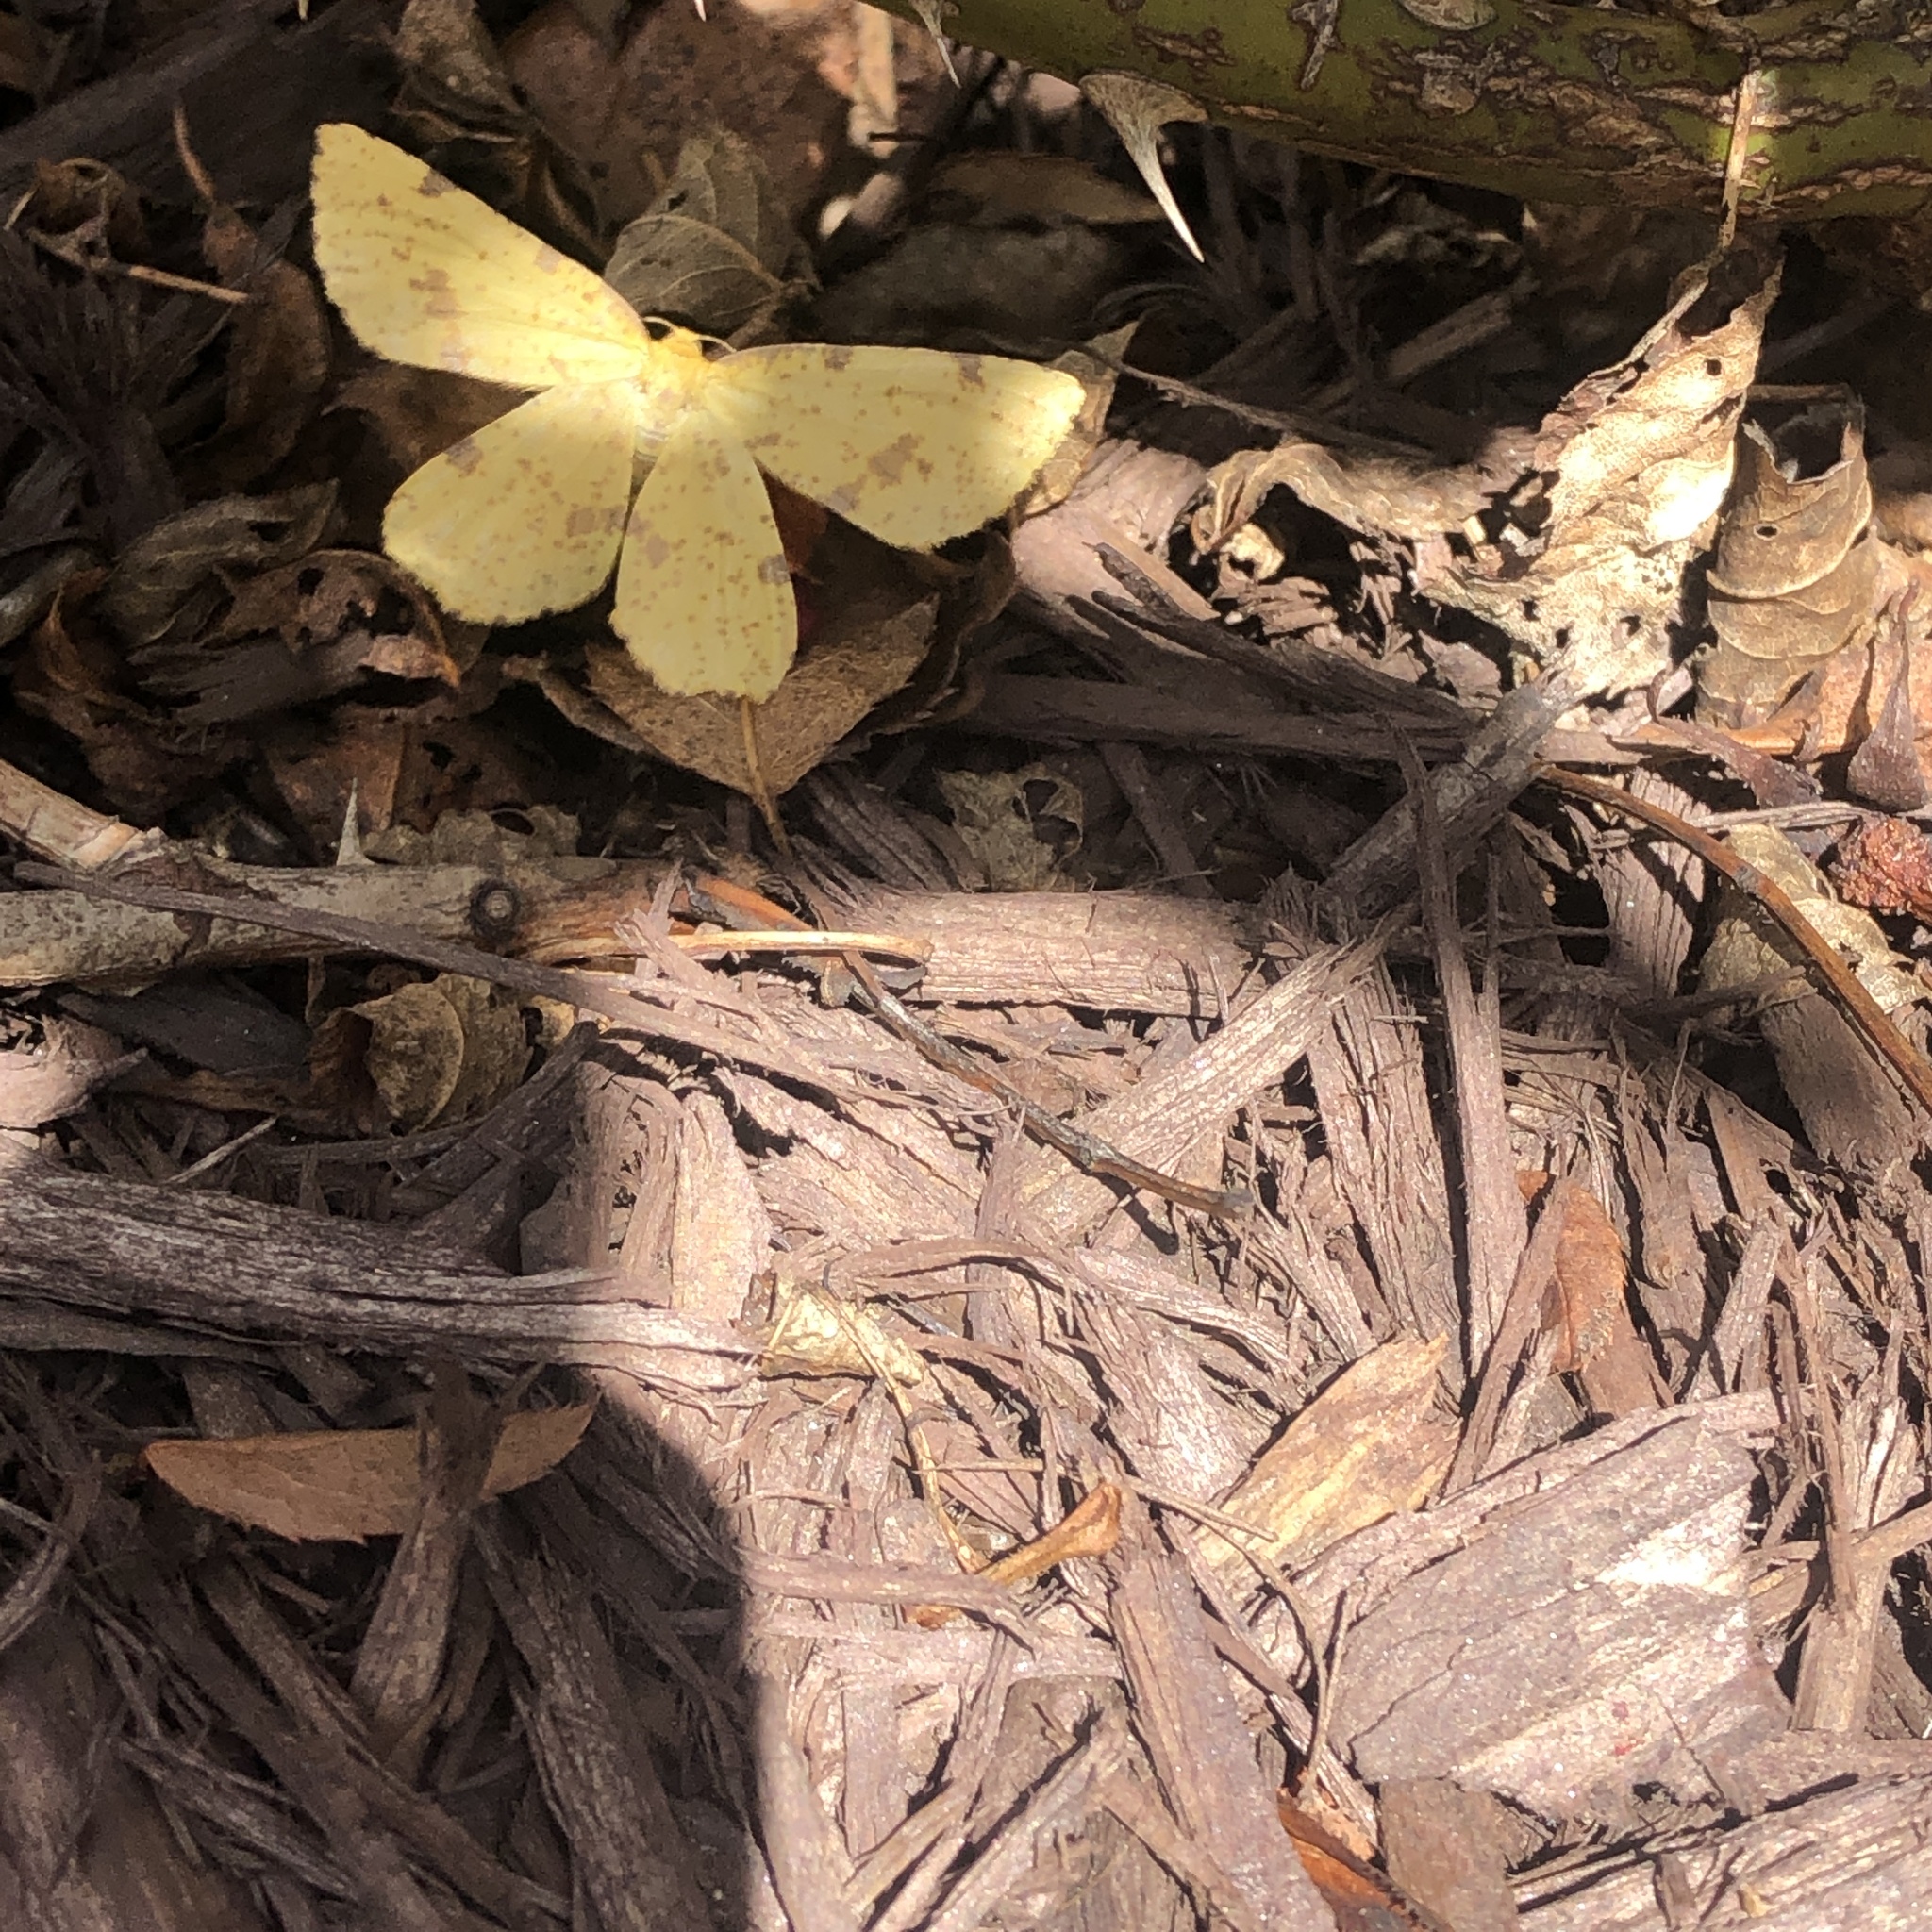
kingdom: Animalia
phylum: Arthropoda
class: Insecta
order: Lepidoptera
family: Geometridae
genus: Xanthotype
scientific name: Xanthotype
